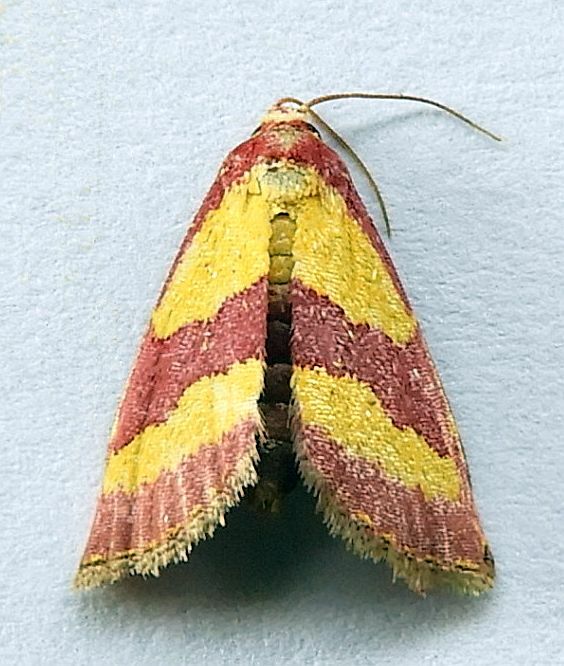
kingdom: Animalia
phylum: Arthropoda
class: Insecta
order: Lepidoptera
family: Noctuidae
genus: Phoenicophanta
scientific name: Phoenicophanta bicolor
